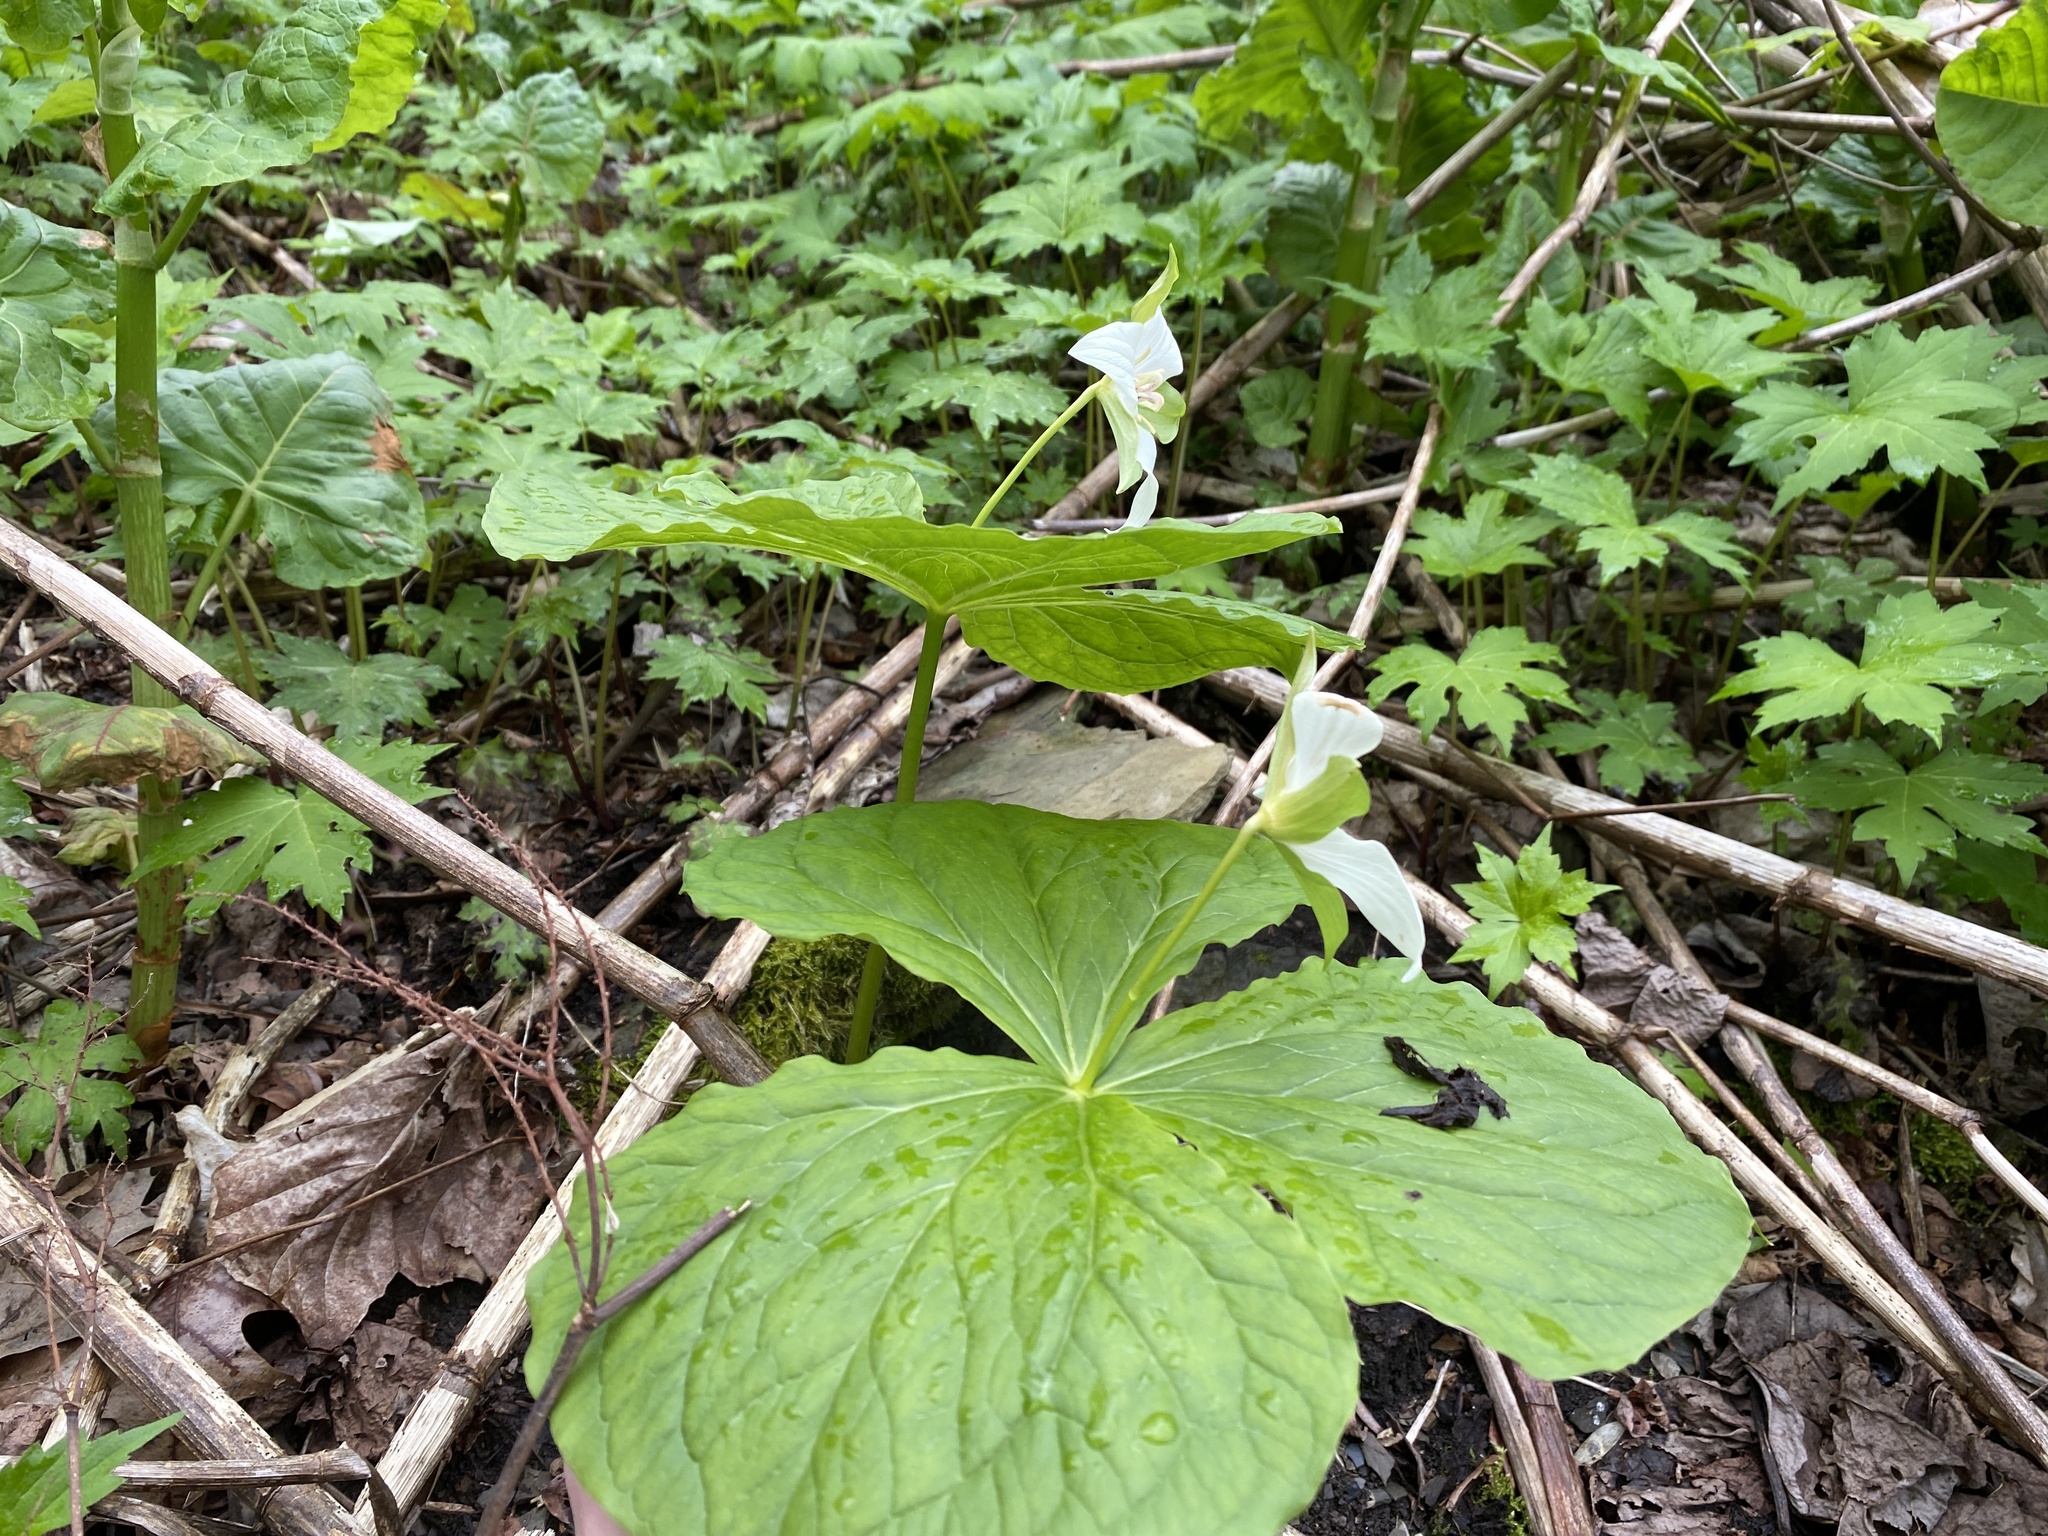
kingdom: Plantae
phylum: Tracheophyta
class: Liliopsida
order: Liliales
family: Melanthiaceae
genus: Trillium
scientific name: Trillium flexipes
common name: Drooping trillium
